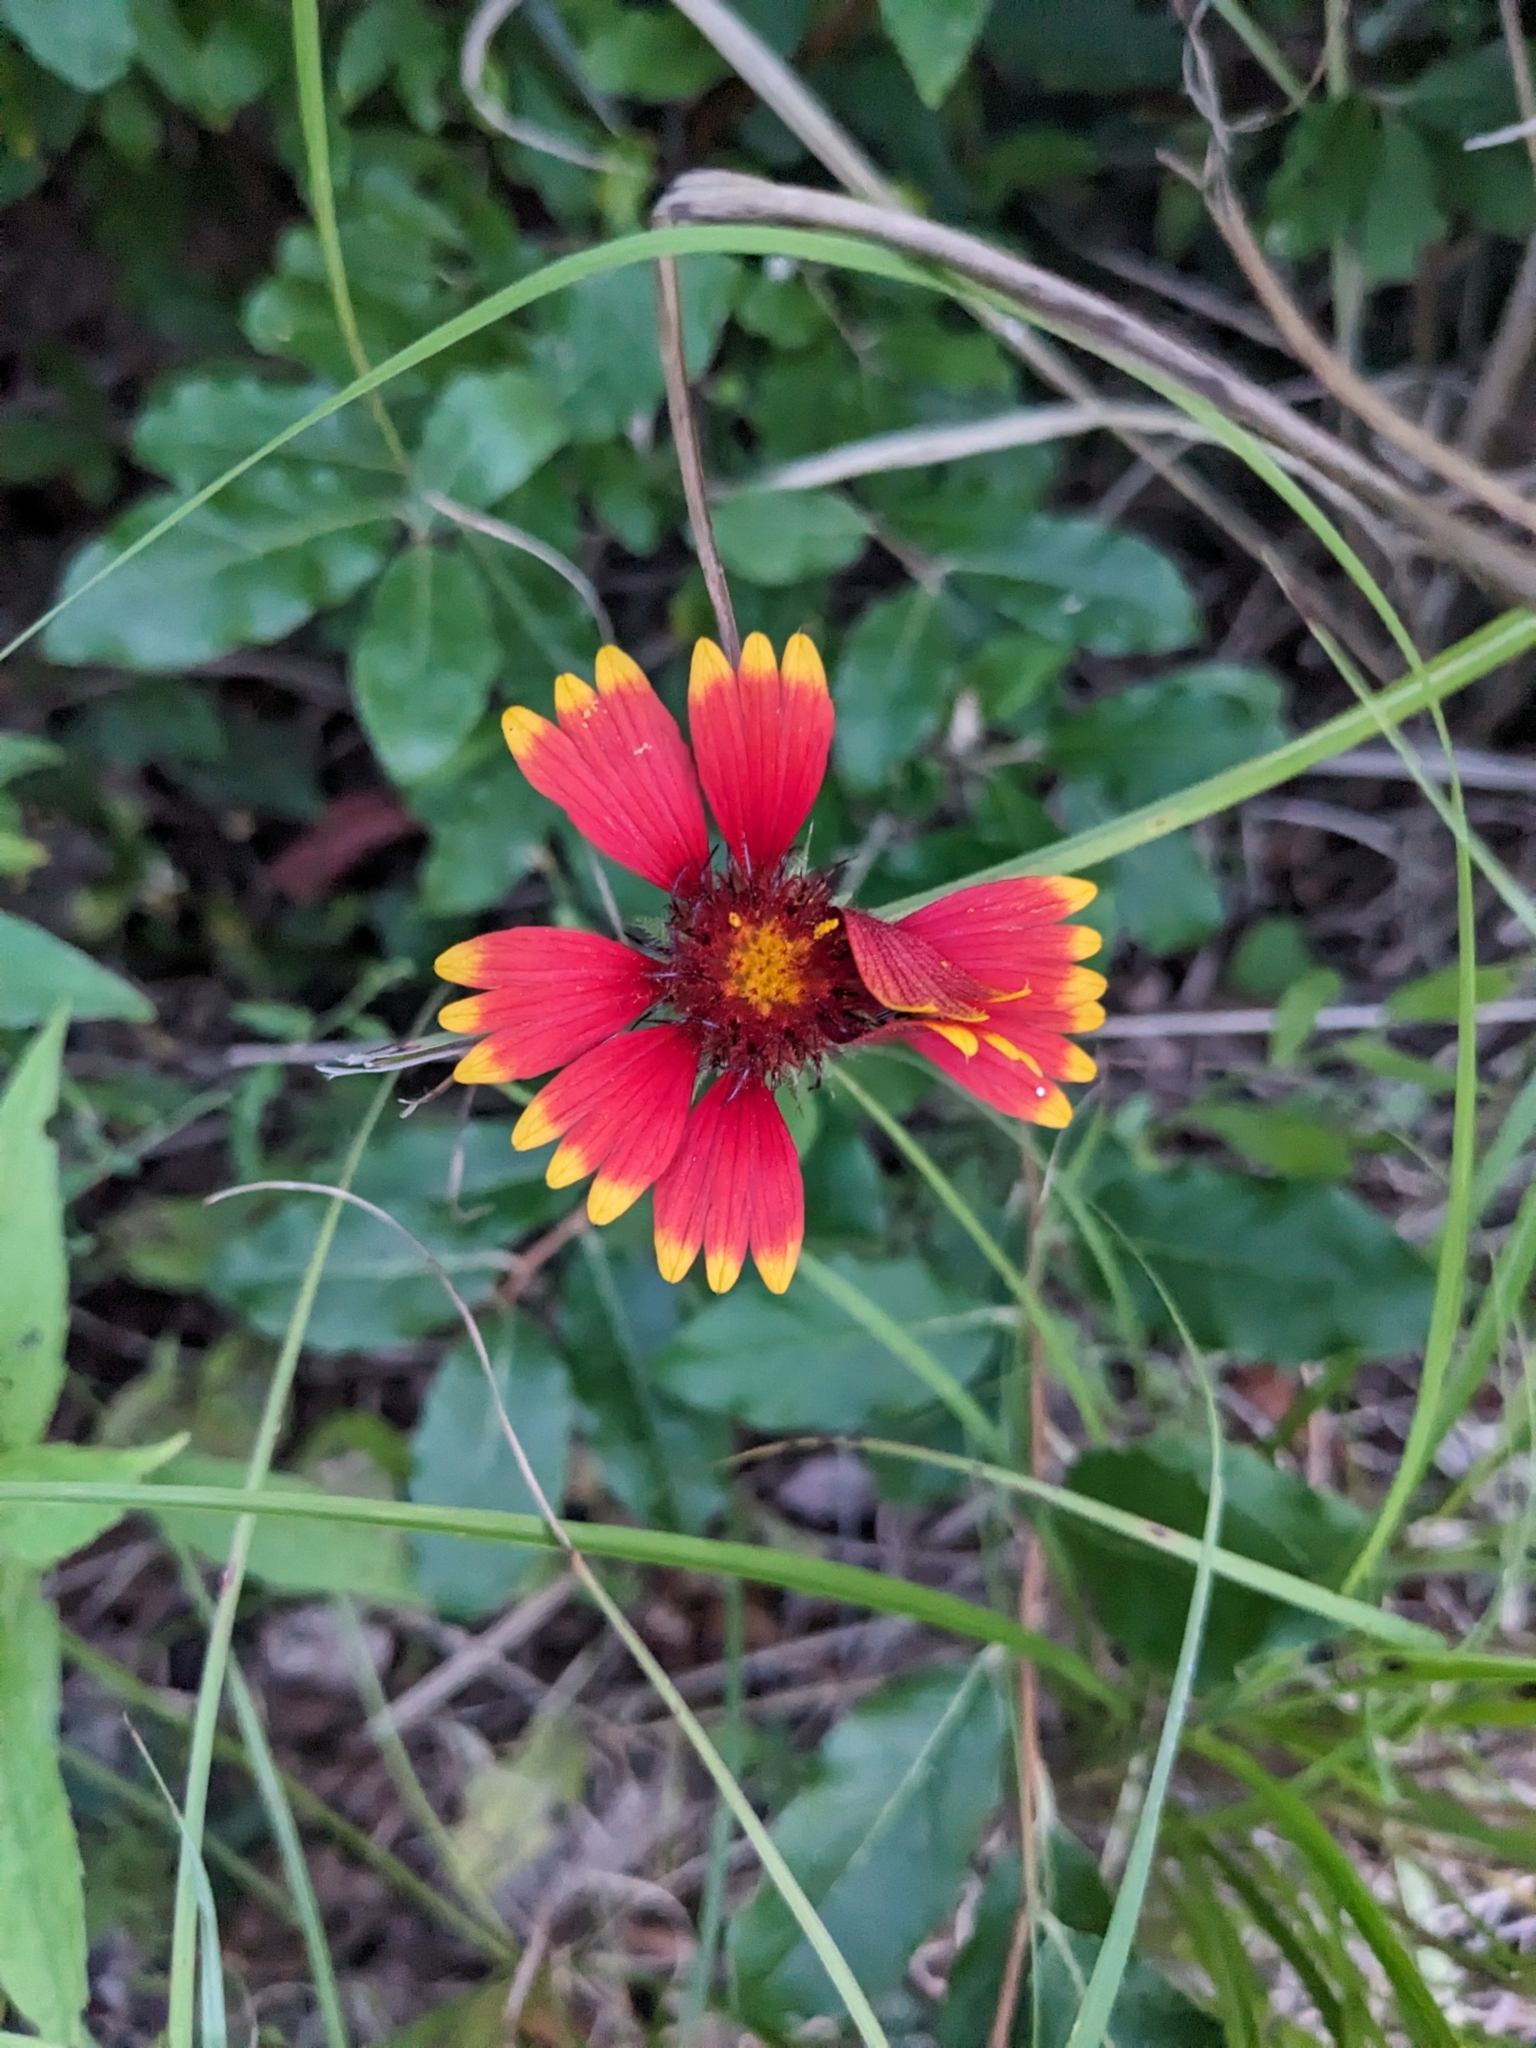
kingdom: Plantae
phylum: Tracheophyta
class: Magnoliopsida
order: Asterales
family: Asteraceae
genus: Gaillardia
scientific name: Gaillardia pulchella
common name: Firewheel
